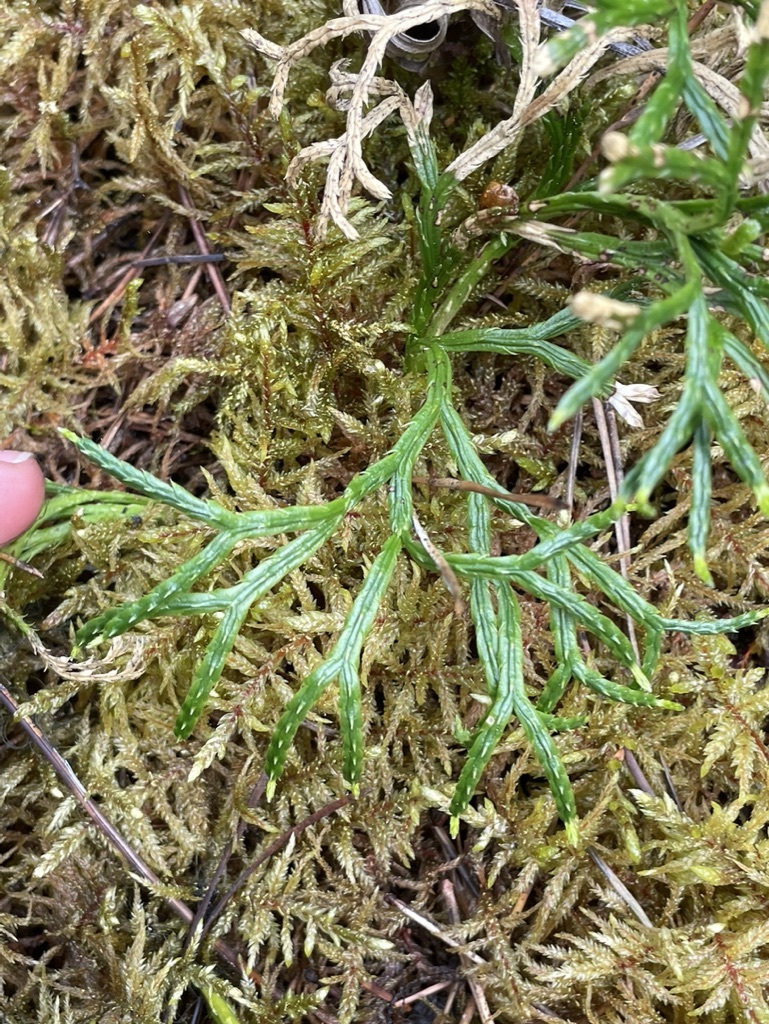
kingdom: Plantae
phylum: Tracheophyta
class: Lycopodiopsida
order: Lycopodiales
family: Lycopodiaceae
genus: Diphasiastrum
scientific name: Diphasiastrum complanatum
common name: Northern running-pine
